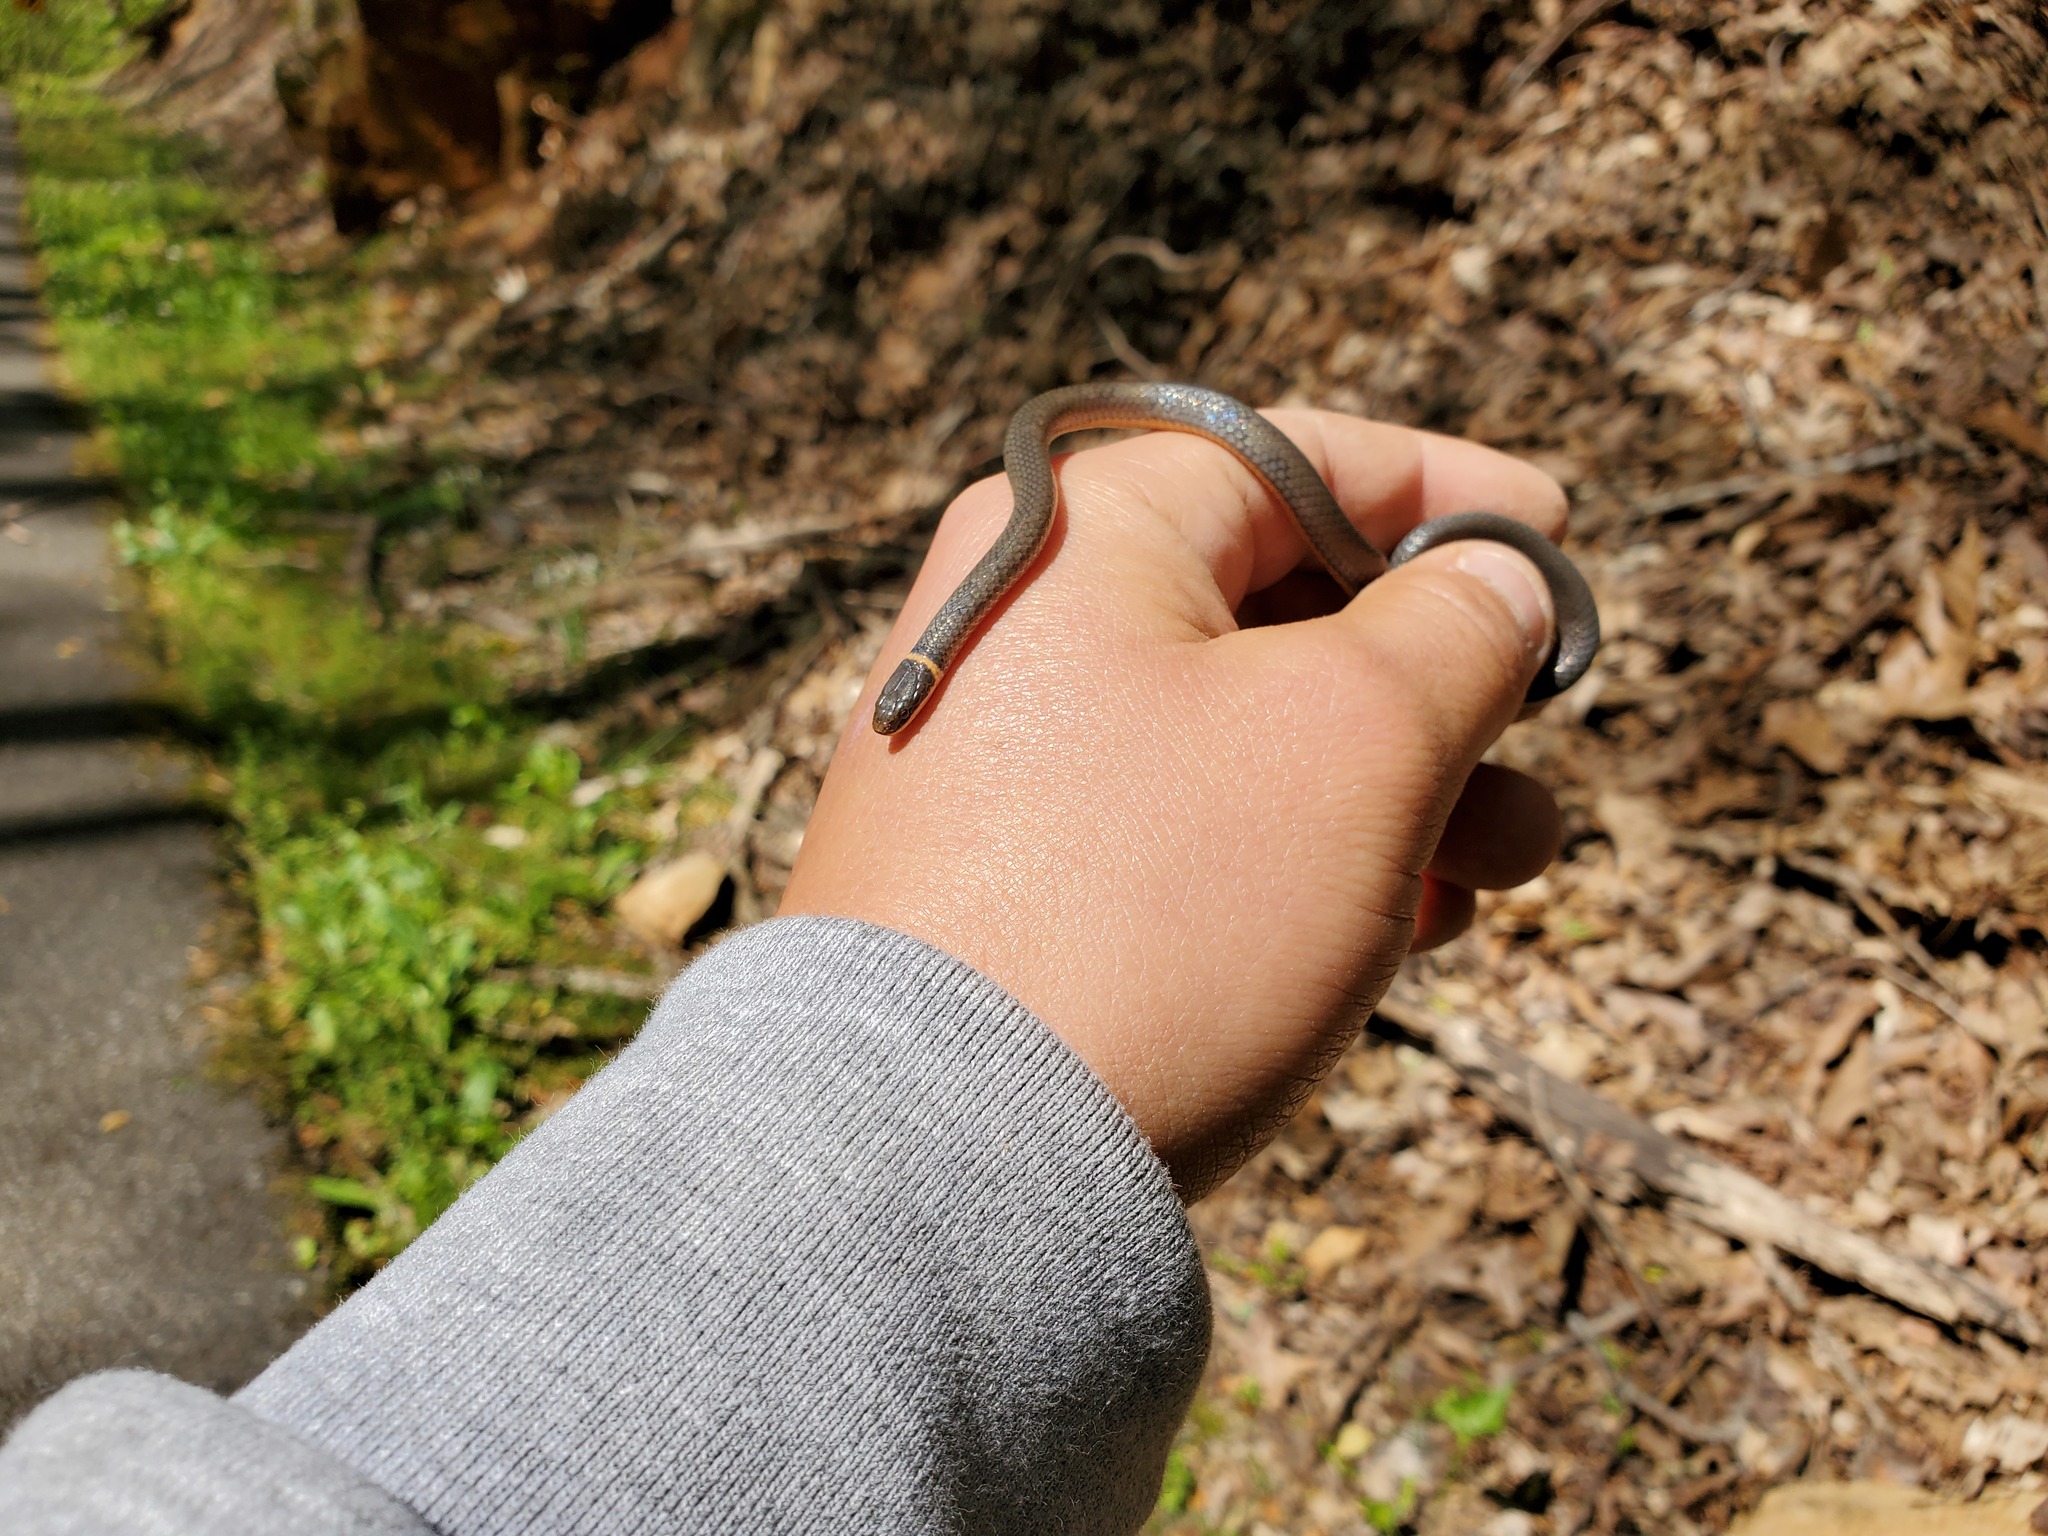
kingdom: Animalia
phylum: Chordata
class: Squamata
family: Colubridae
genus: Diadophis
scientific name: Diadophis punctatus
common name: Ringneck snake
